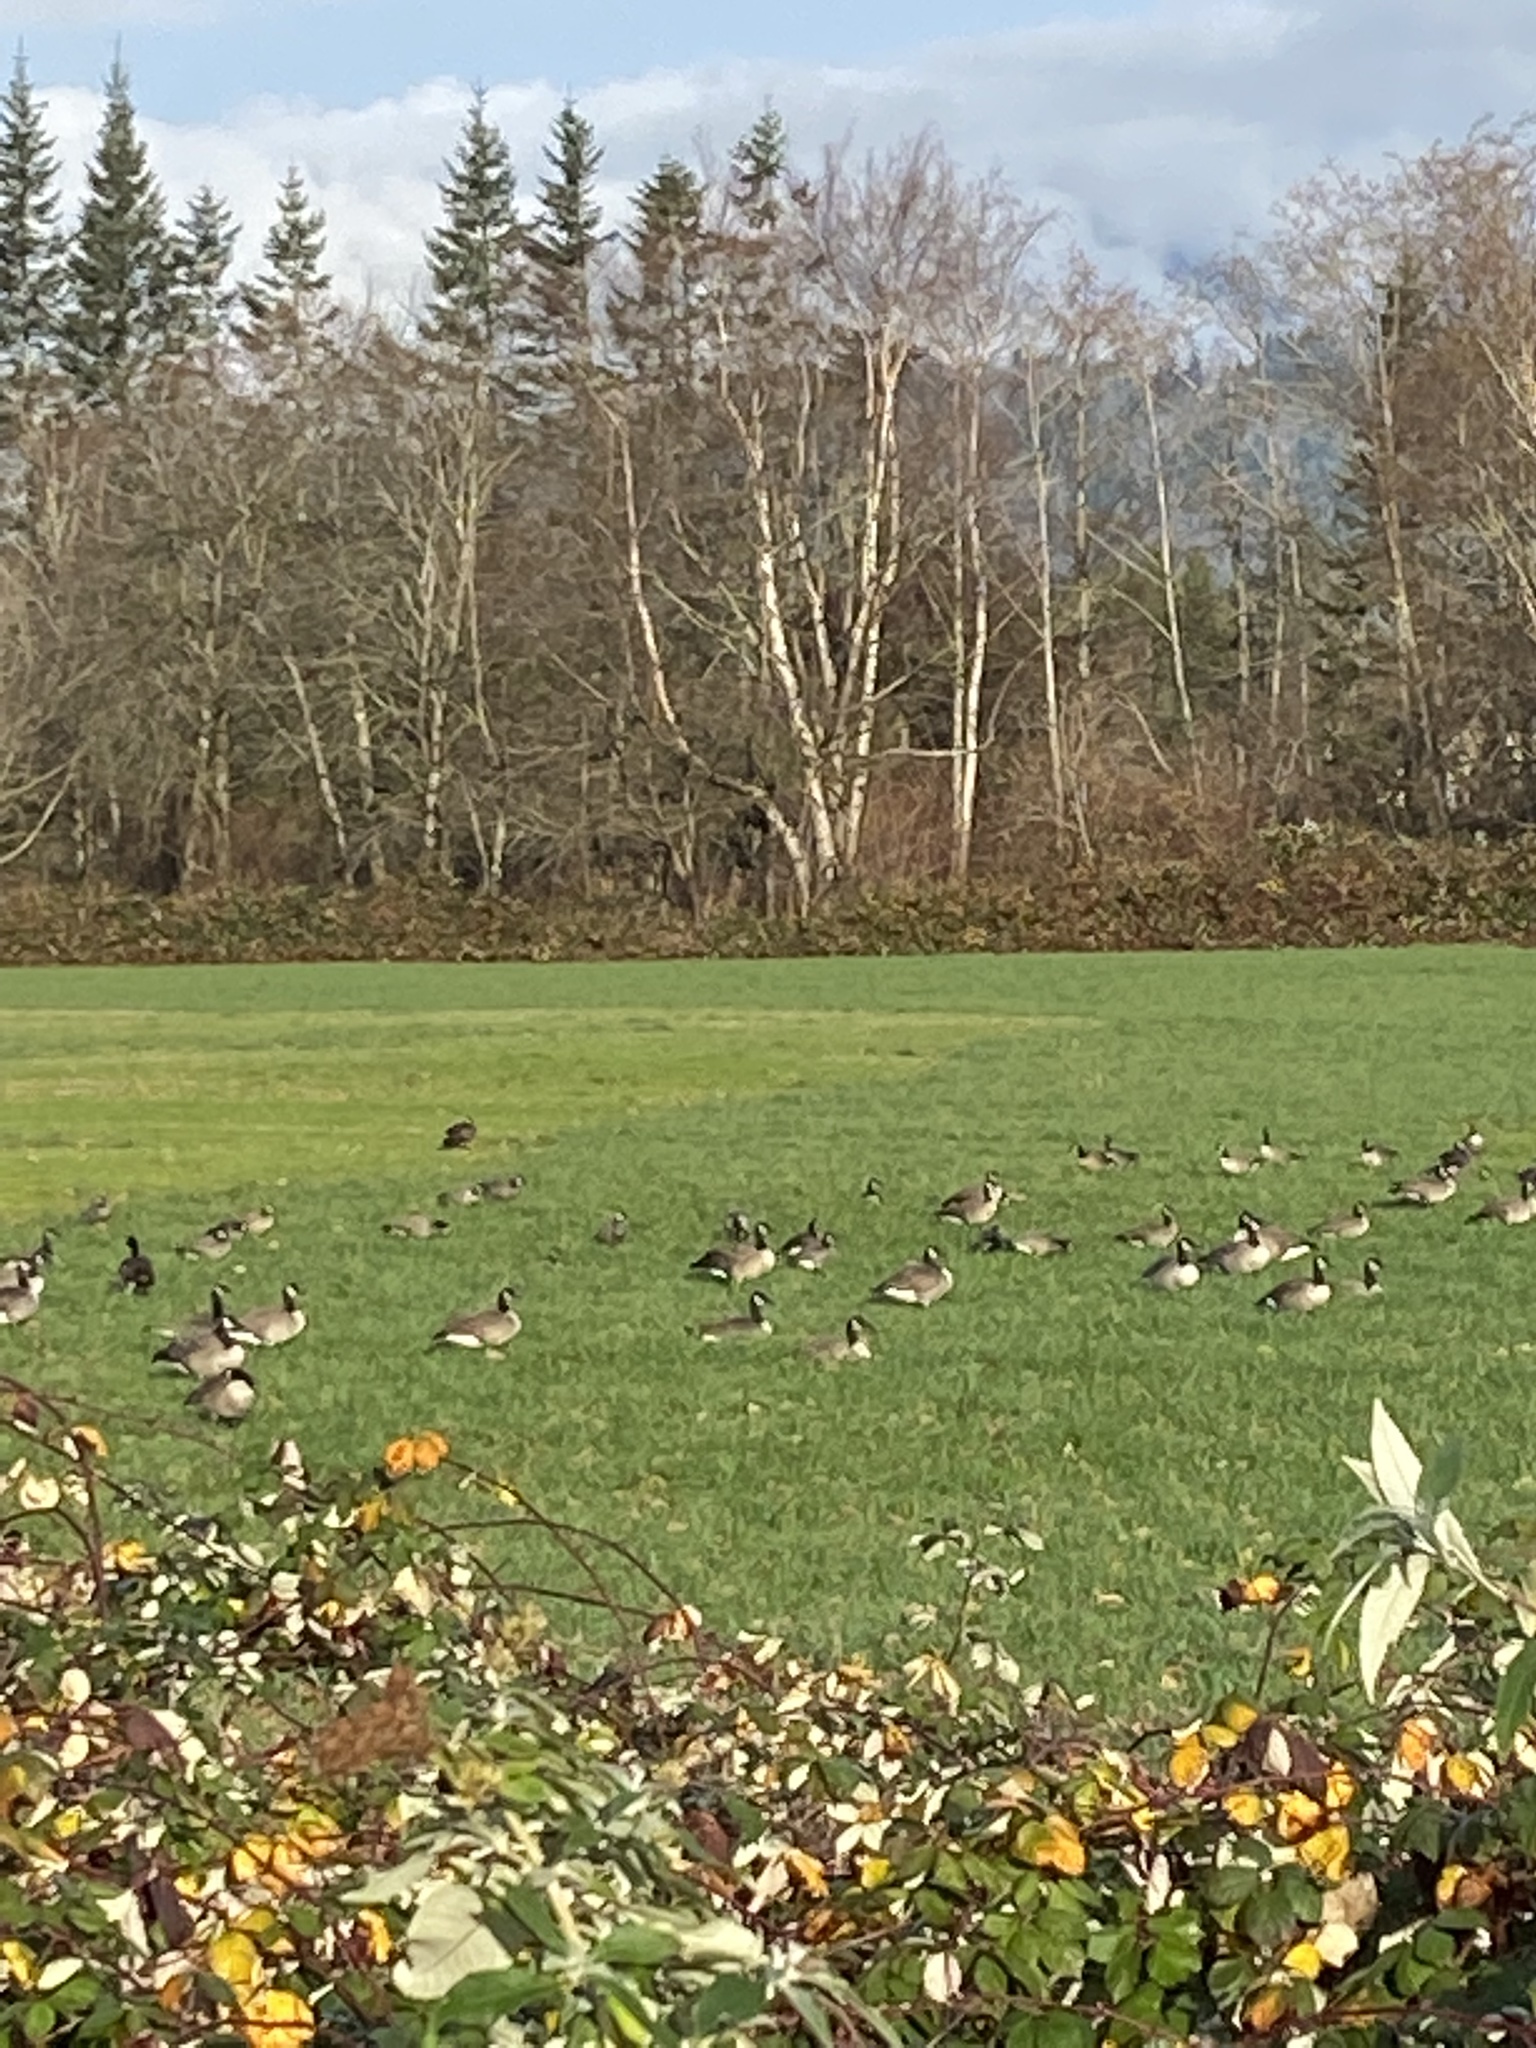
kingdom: Animalia
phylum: Chordata
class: Aves
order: Anseriformes
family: Anatidae
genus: Branta
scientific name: Branta canadensis
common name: Canada goose
